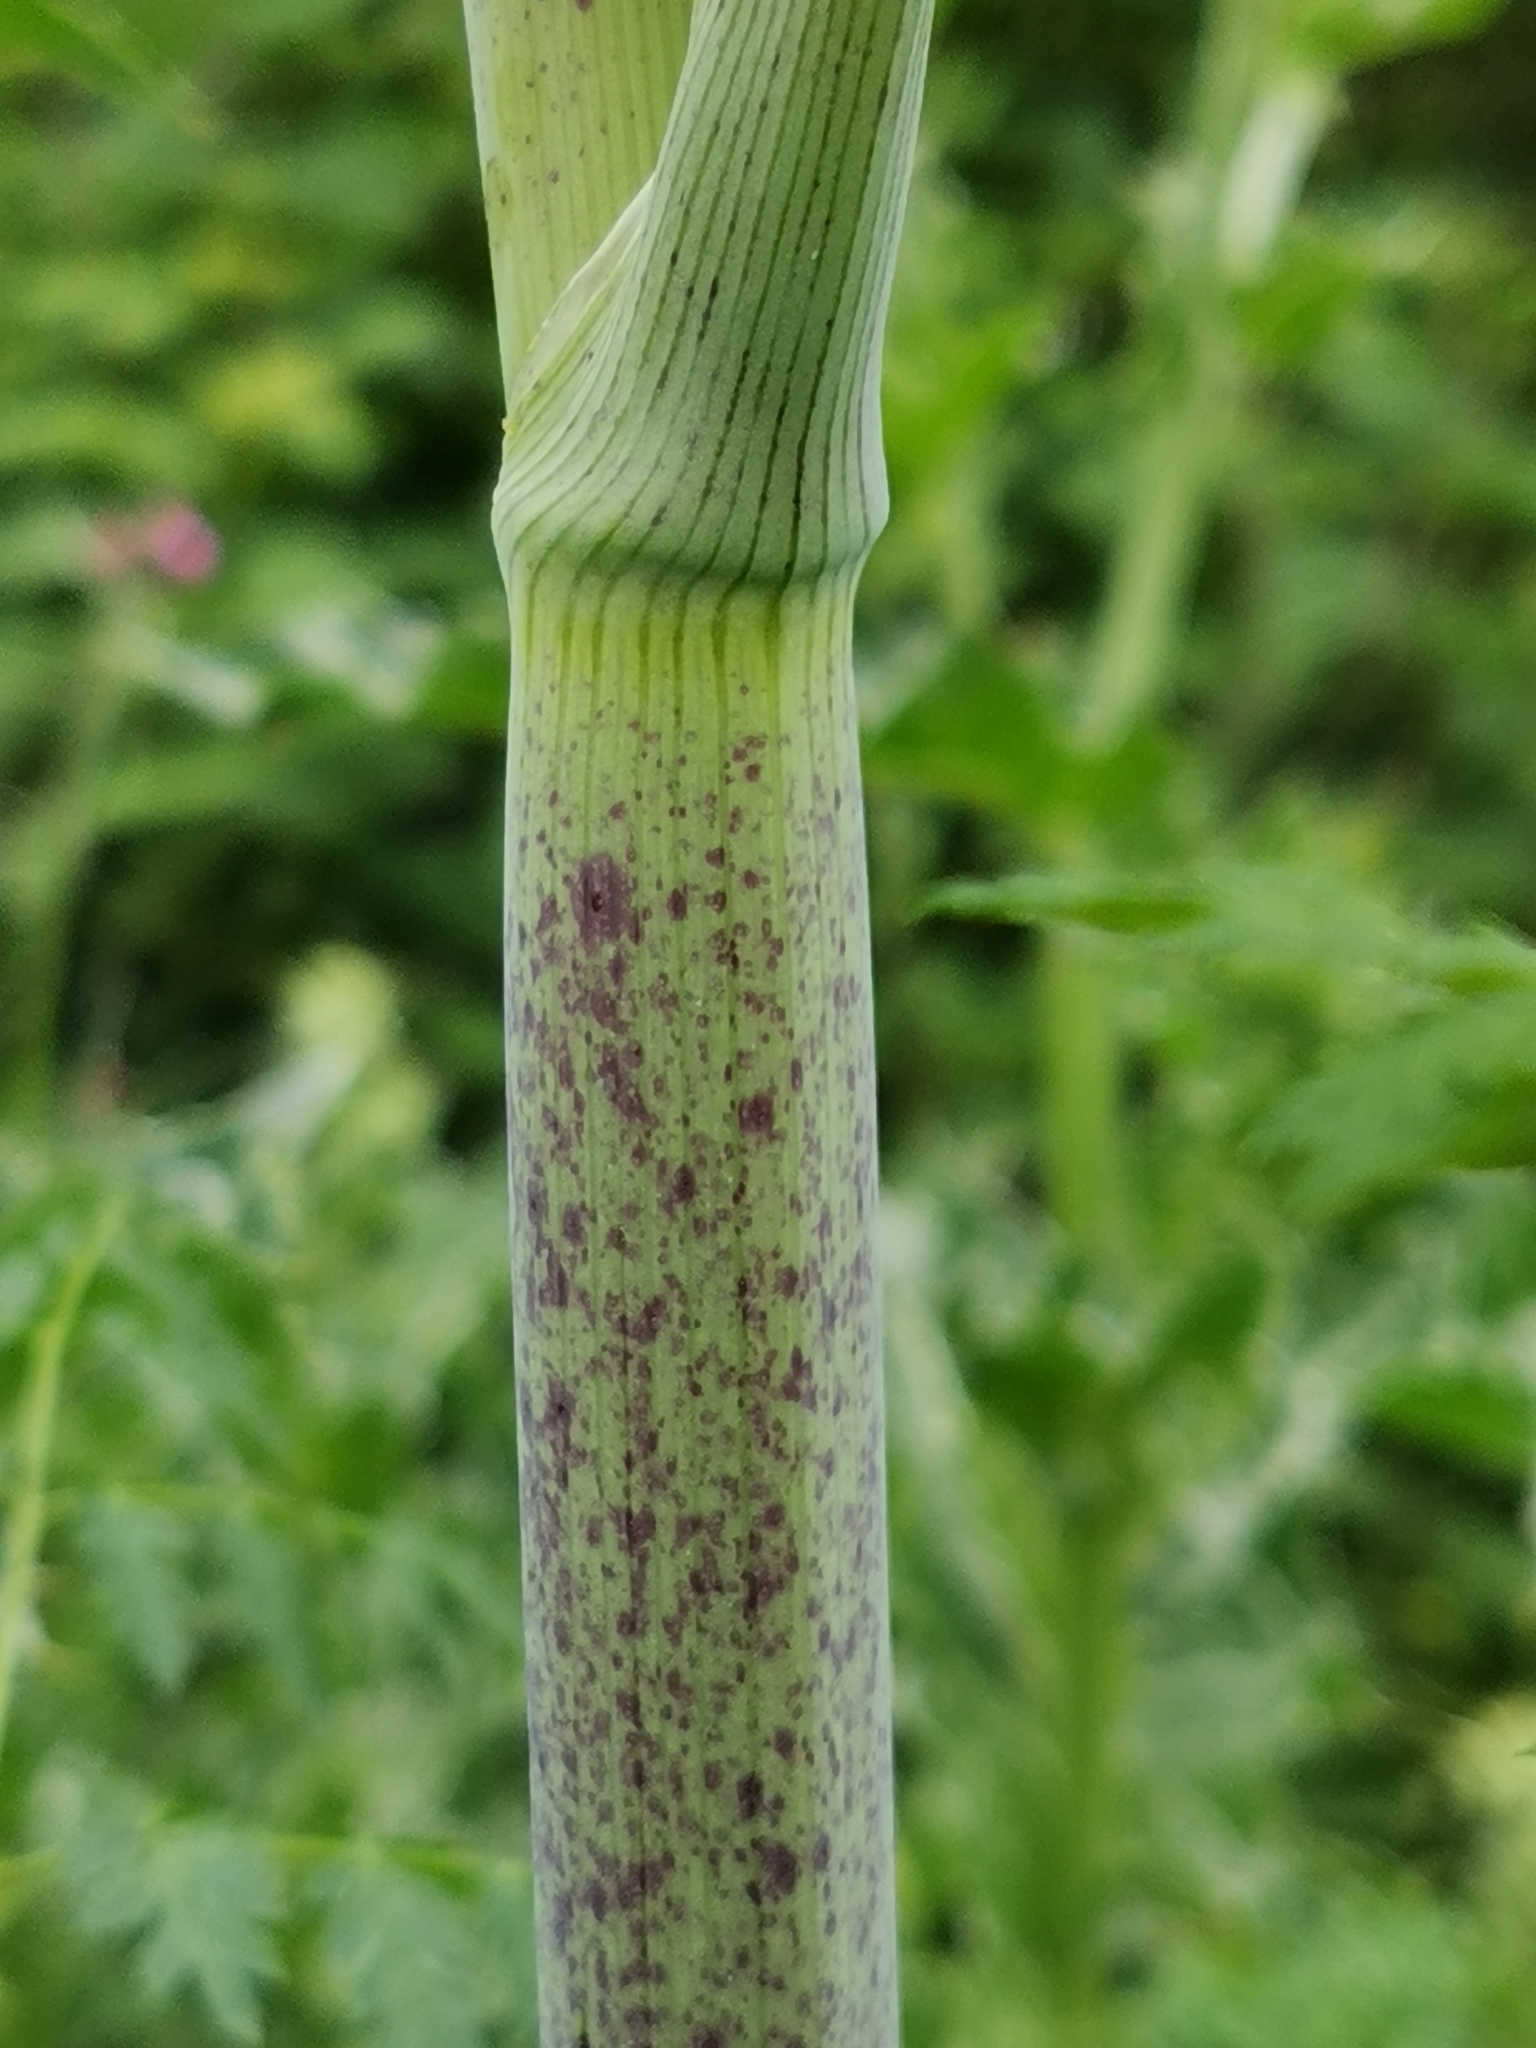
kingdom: Plantae
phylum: Tracheophyta
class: Magnoliopsida
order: Apiales
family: Apiaceae
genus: Conium
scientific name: Conium maculatum
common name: Hemlock
